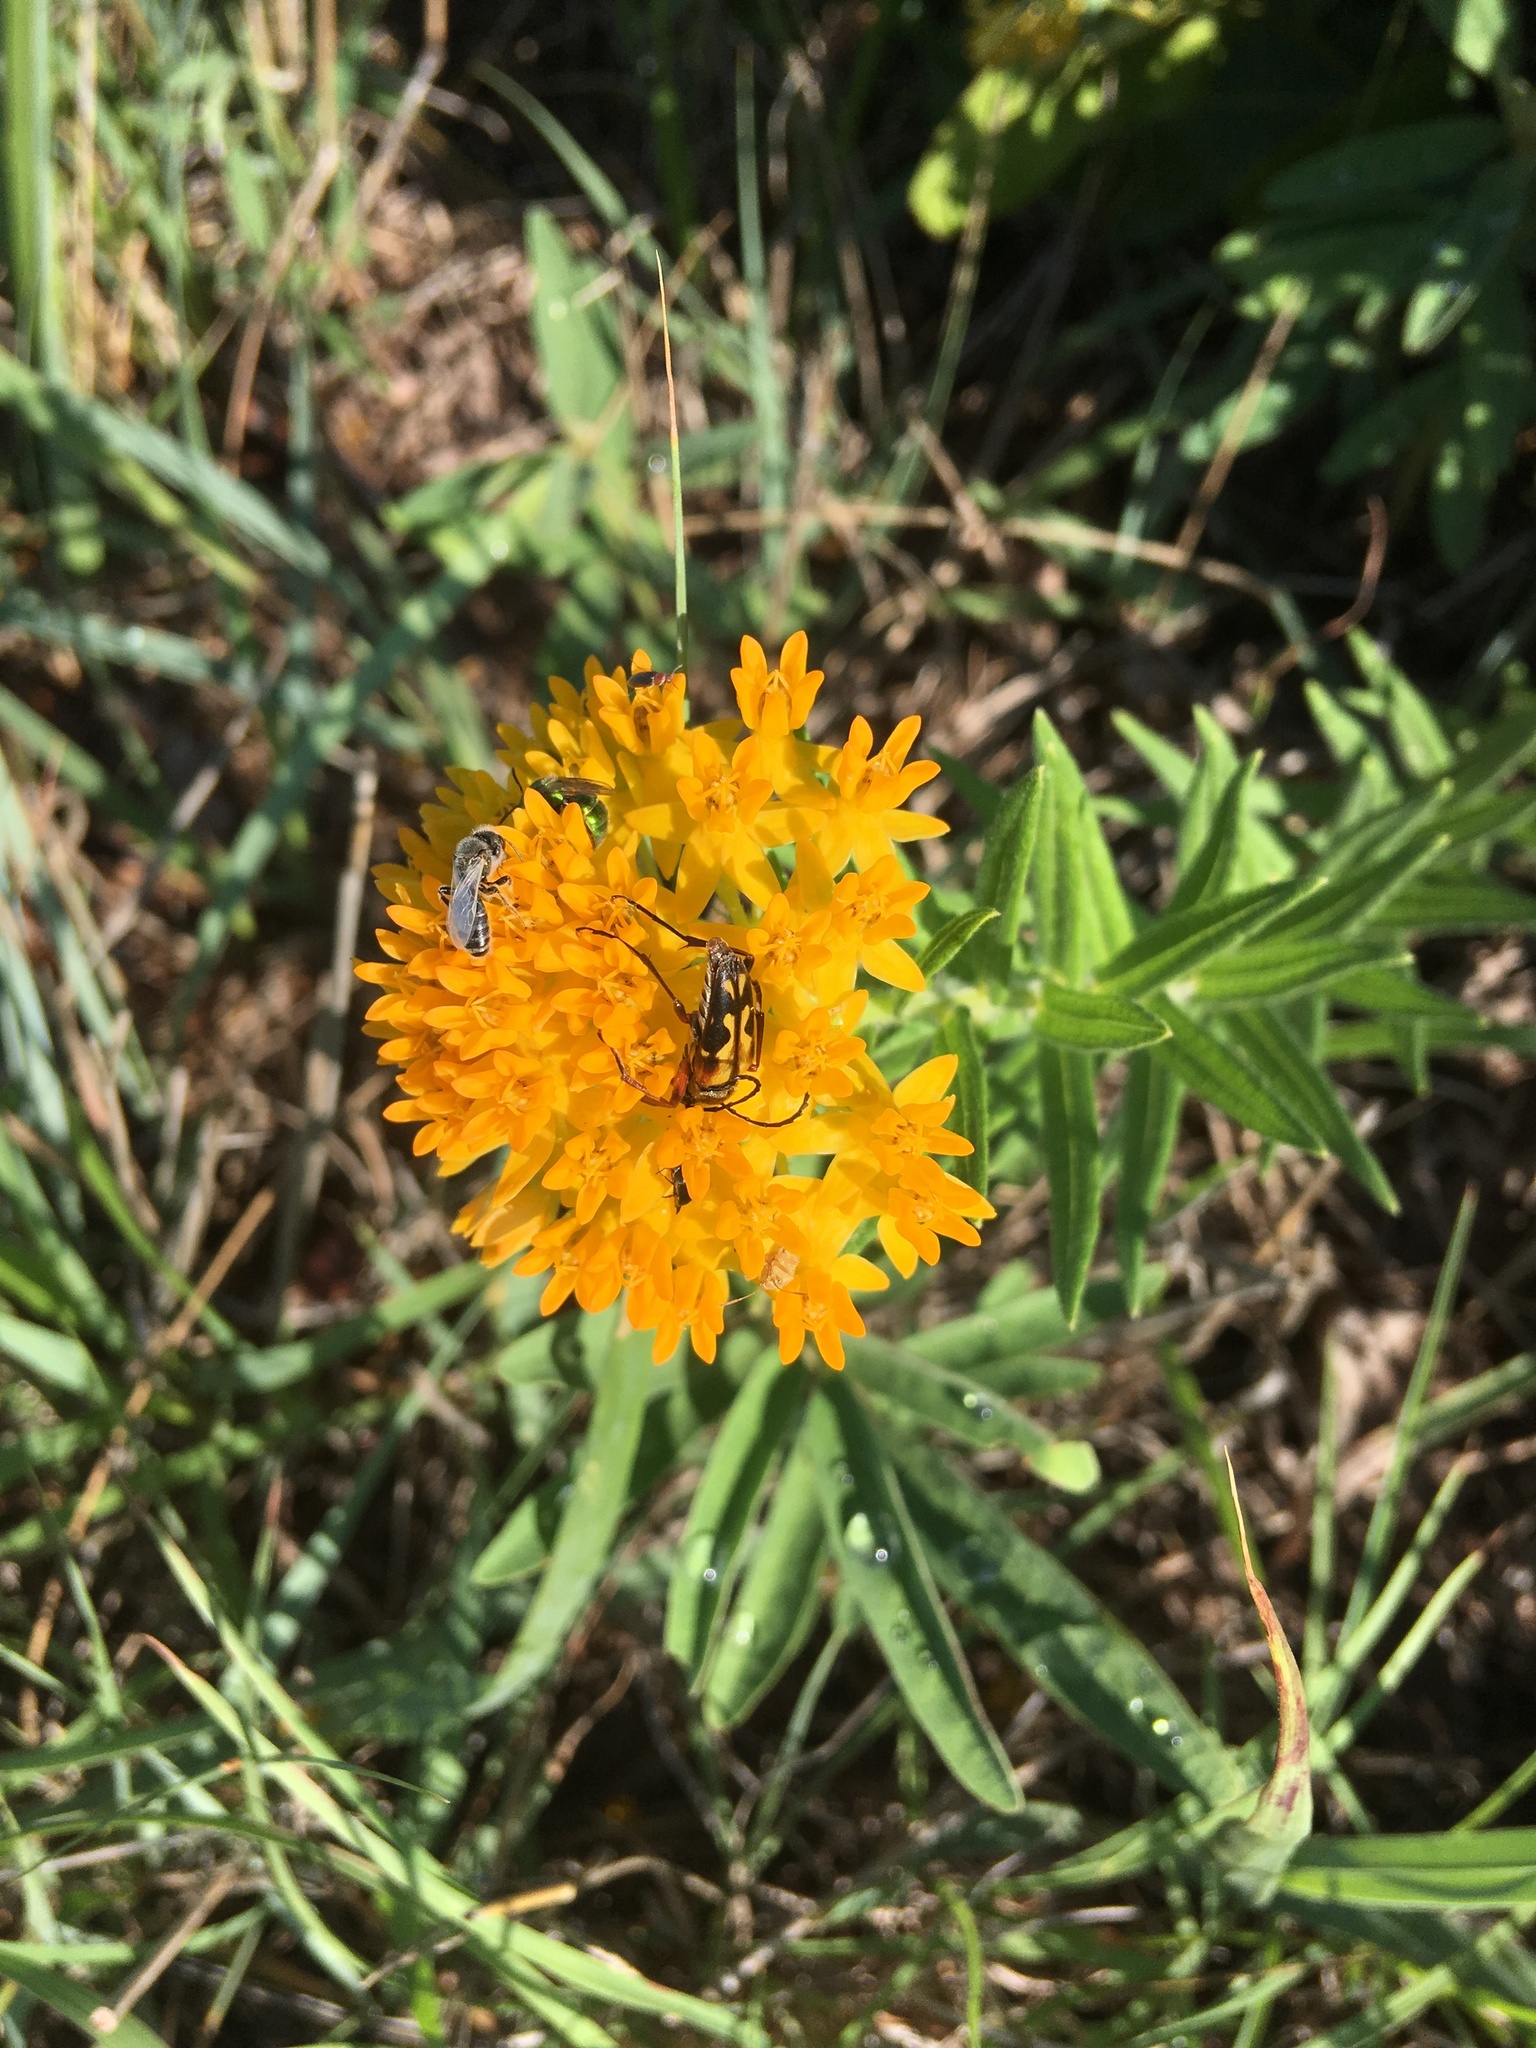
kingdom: Animalia
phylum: Arthropoda
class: Insecta
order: Coleoptera
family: Cerambycidae
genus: Typocerus
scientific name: Typocerus octonotatus
